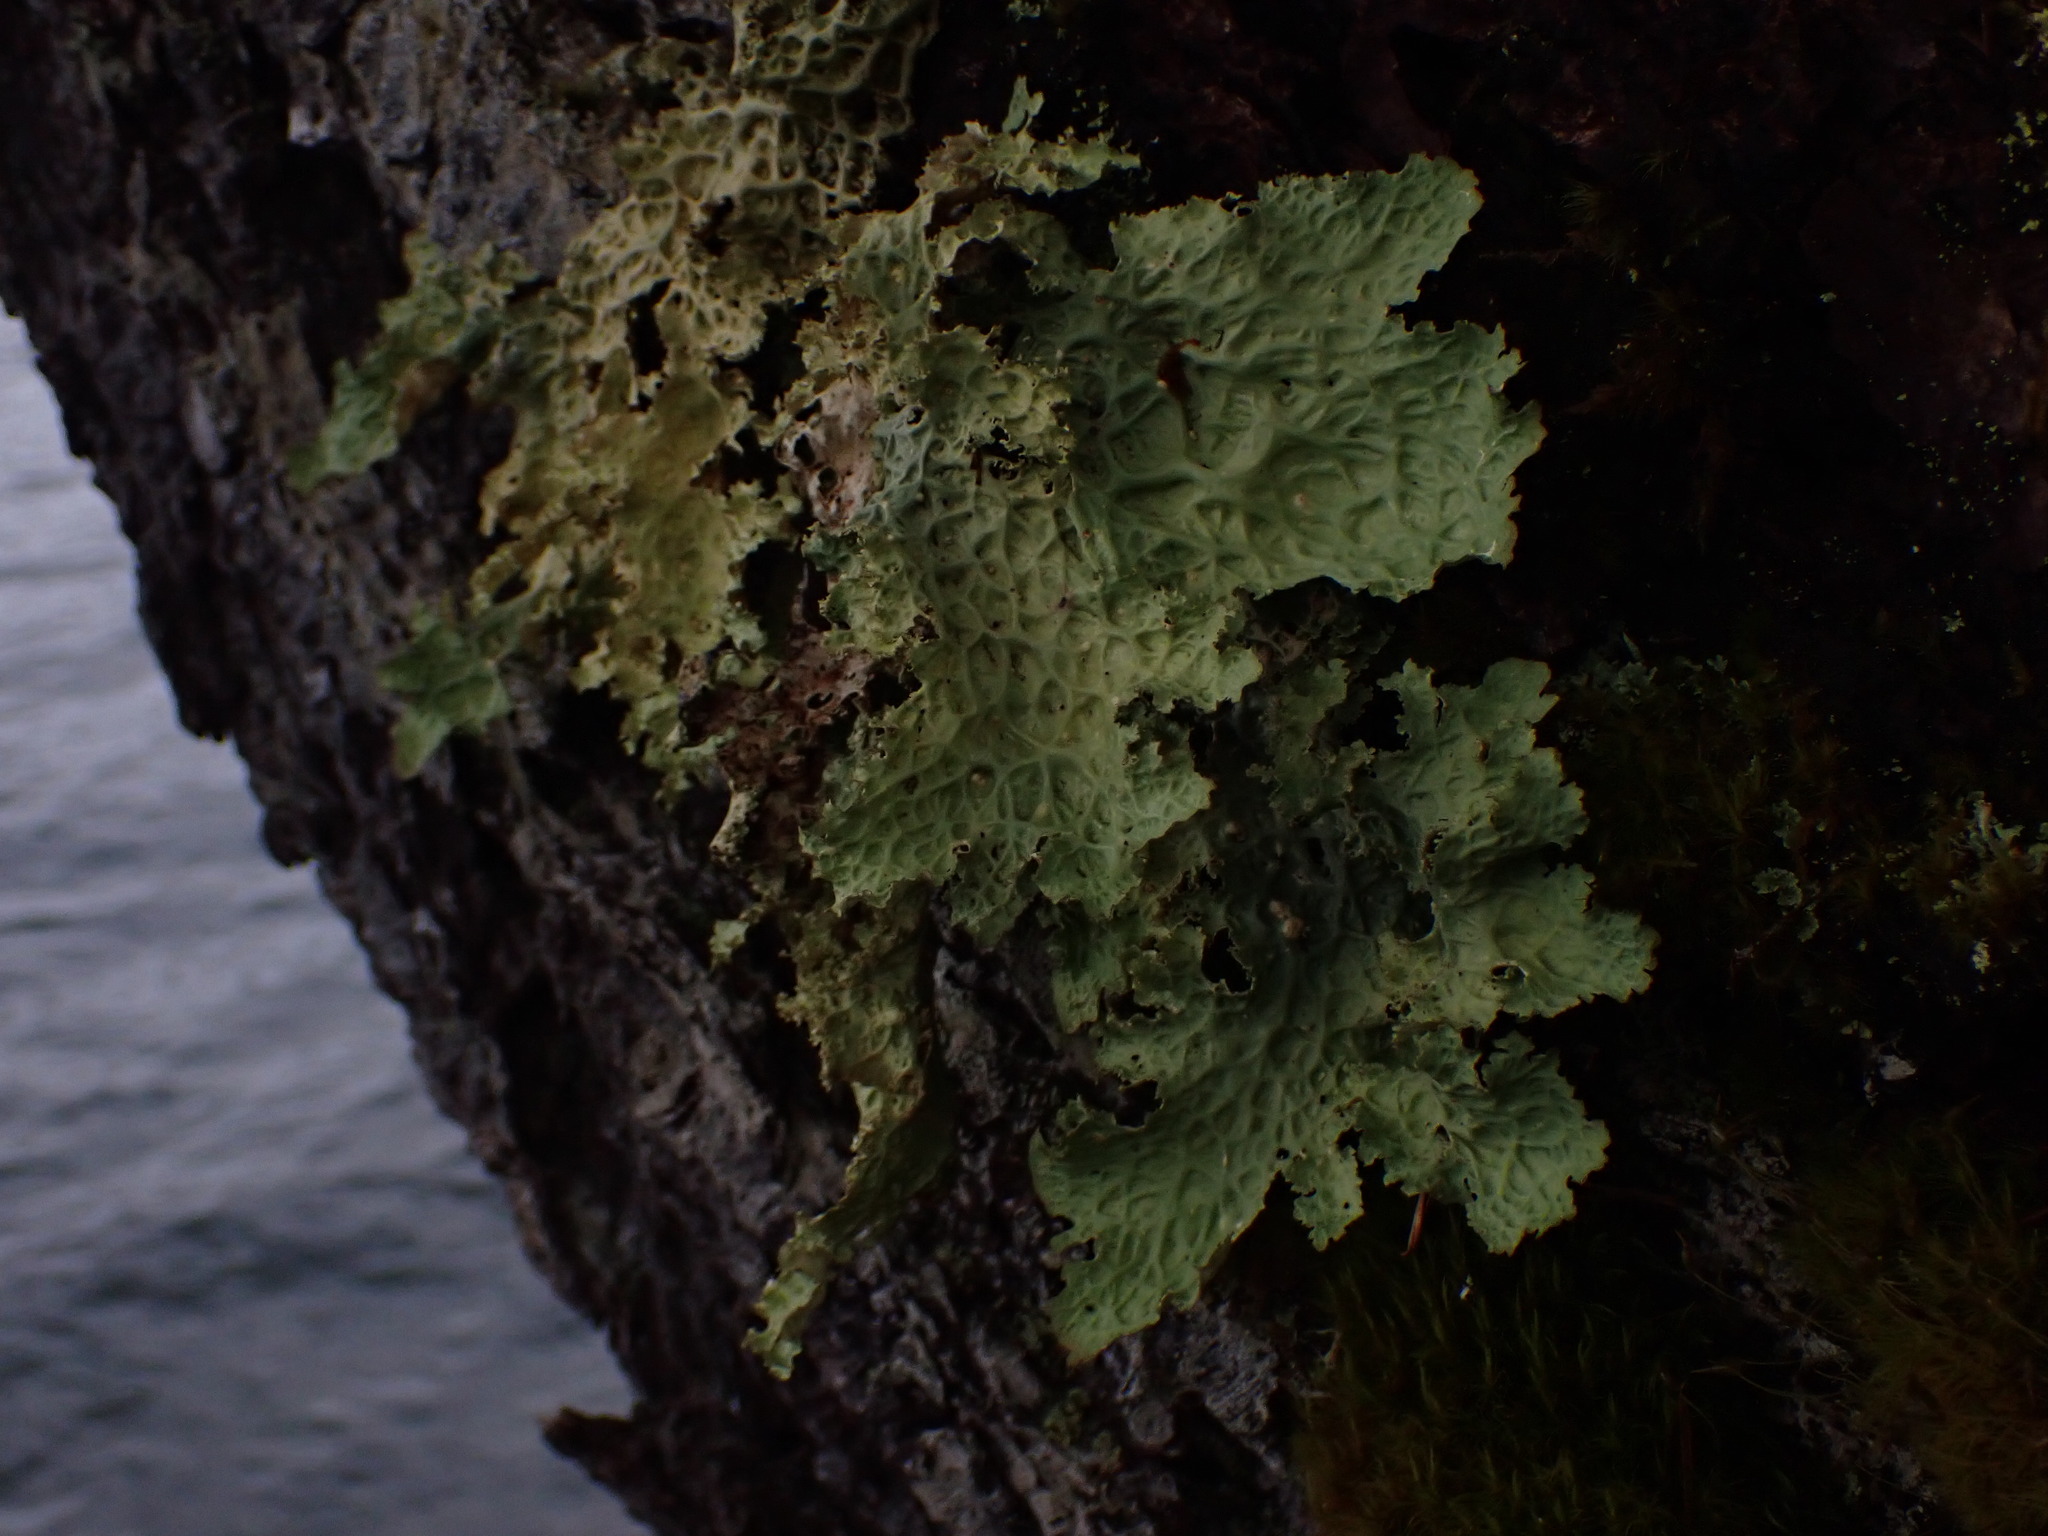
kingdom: Fungi
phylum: Ascomycota
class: Lecanoromycetes
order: Peltigerales
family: Lobariaceae
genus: Lobaria
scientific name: Lobaria oregana
